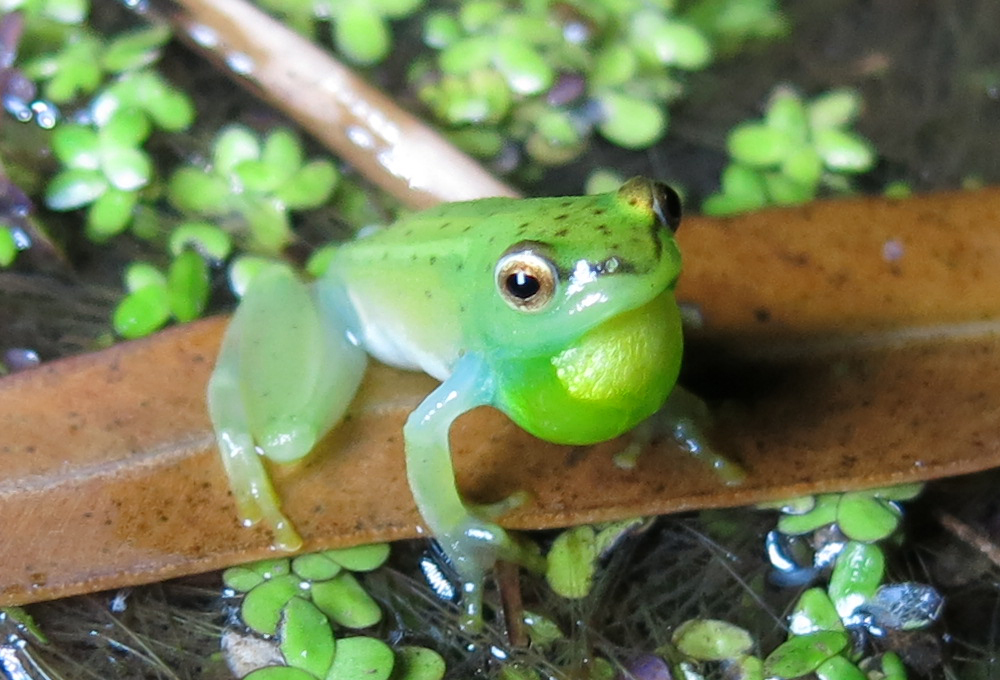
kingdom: Animalia
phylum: Chordata
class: Amphibia
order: Anura
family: Hyperoliidae
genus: Hyperolius
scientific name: Hyperolius pusillus
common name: Water lily reed frog
